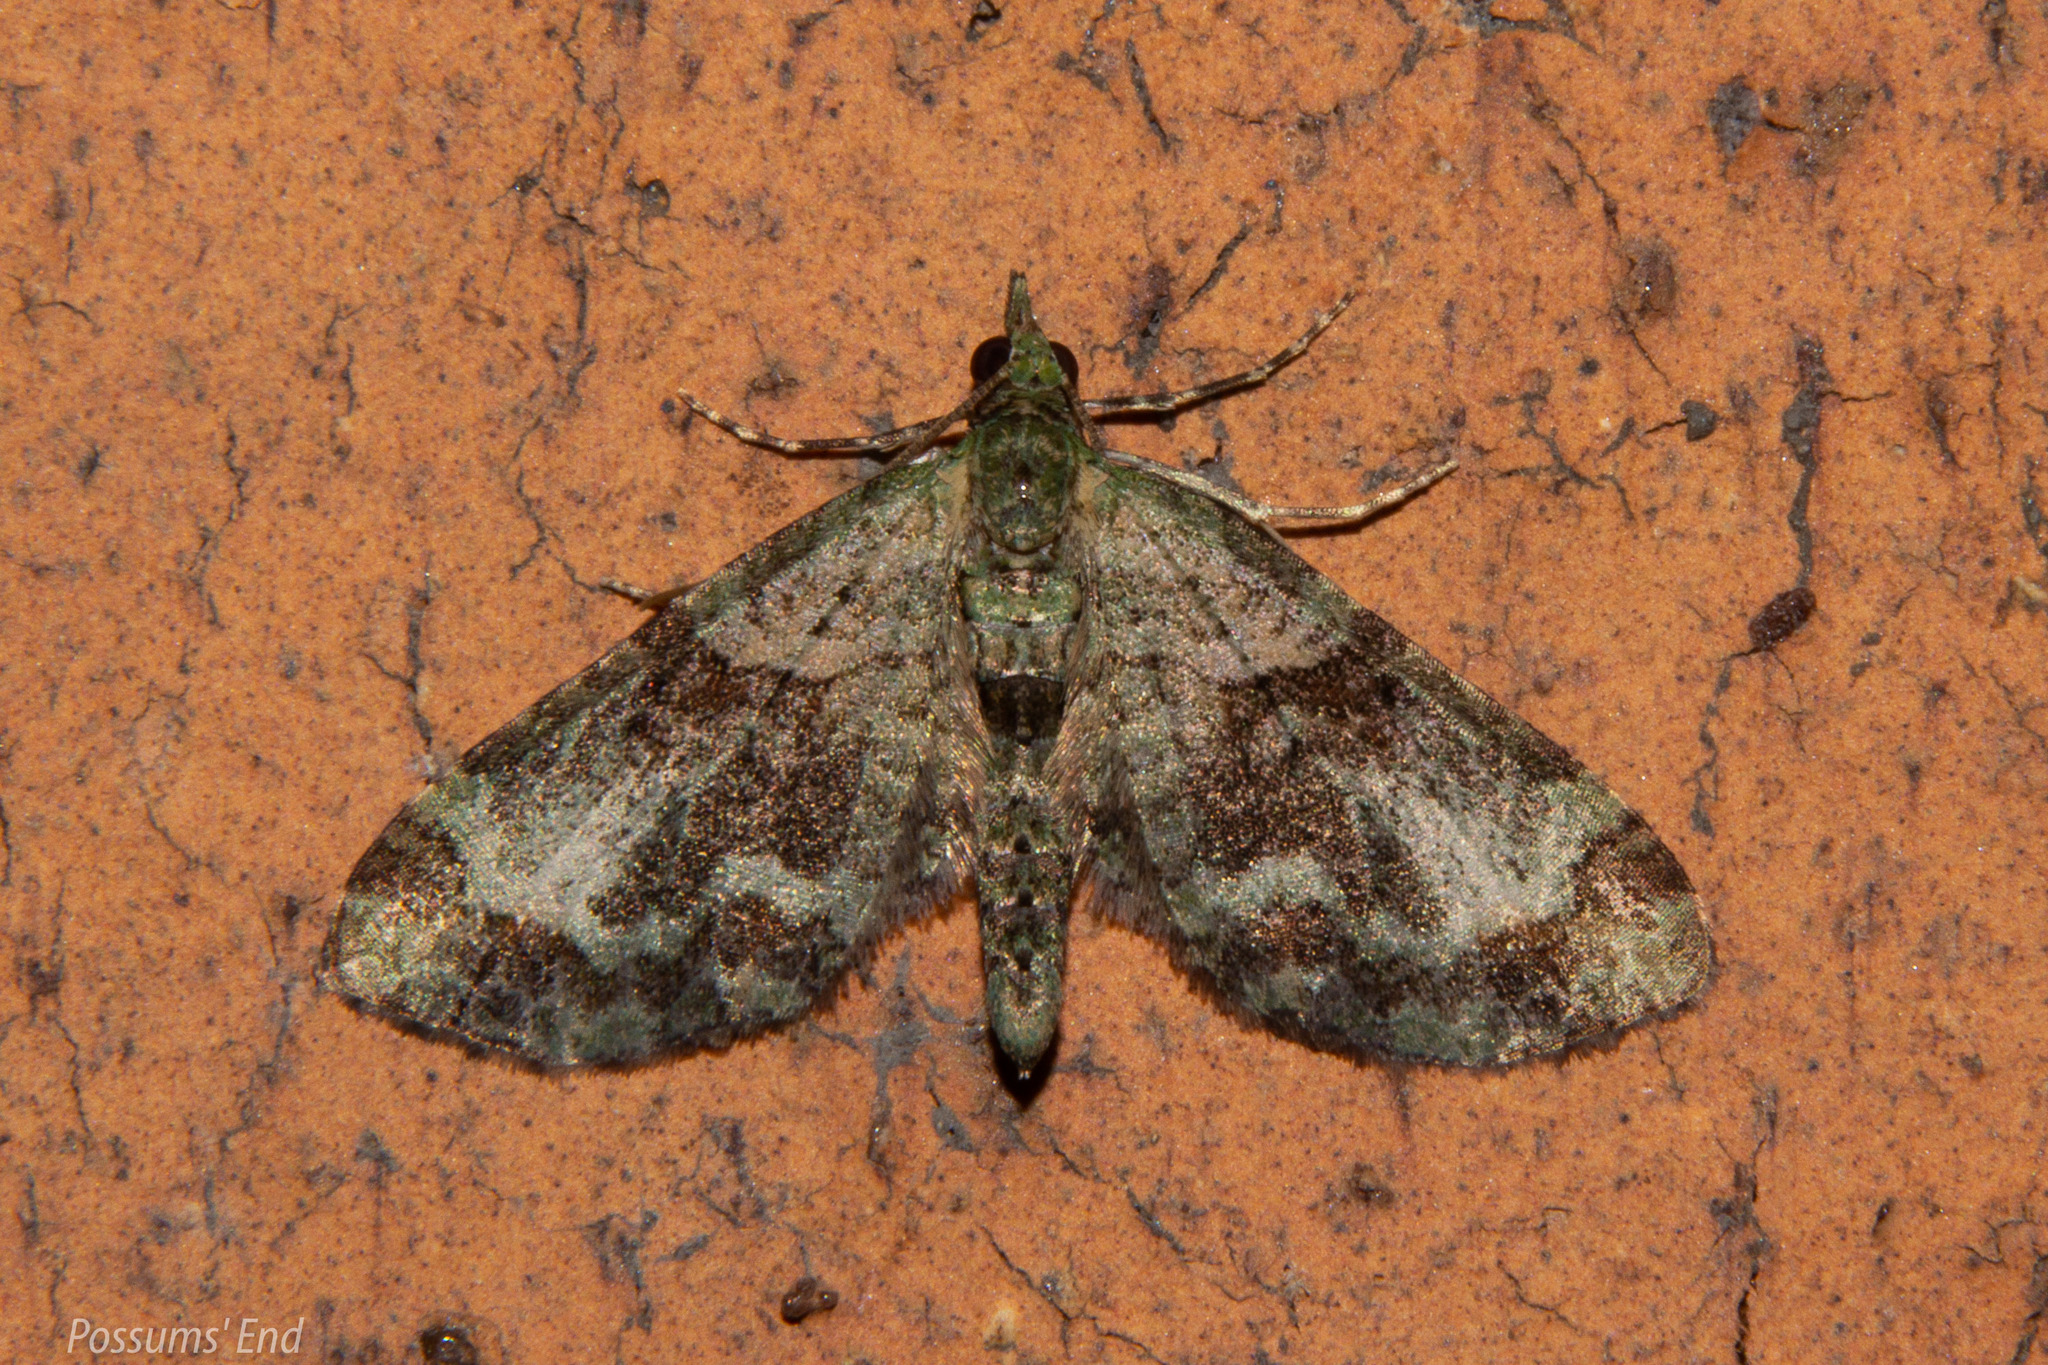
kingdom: Animalia
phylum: Arthropoda
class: Insecta
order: Lepidoptera
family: Geometridae
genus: Idaea
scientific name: Idaea mutanda
